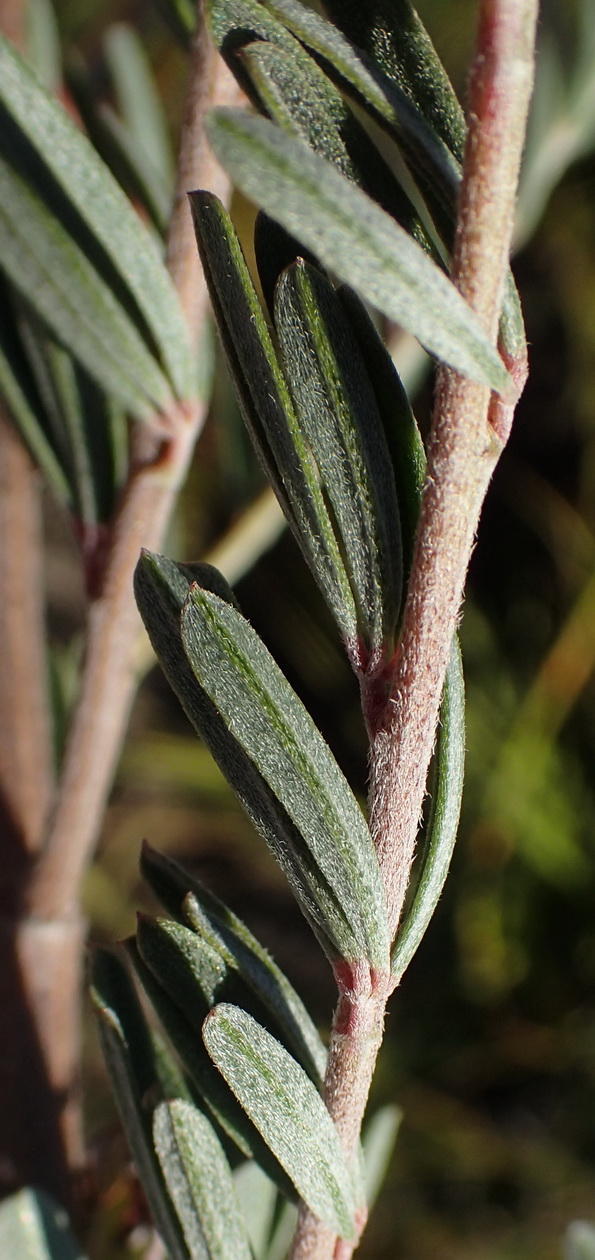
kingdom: Plantae
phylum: Tracheophyta
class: Magnoliopsida
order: Fabales
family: Fabaceae
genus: Indigofera
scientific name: Indigofera flabellata
